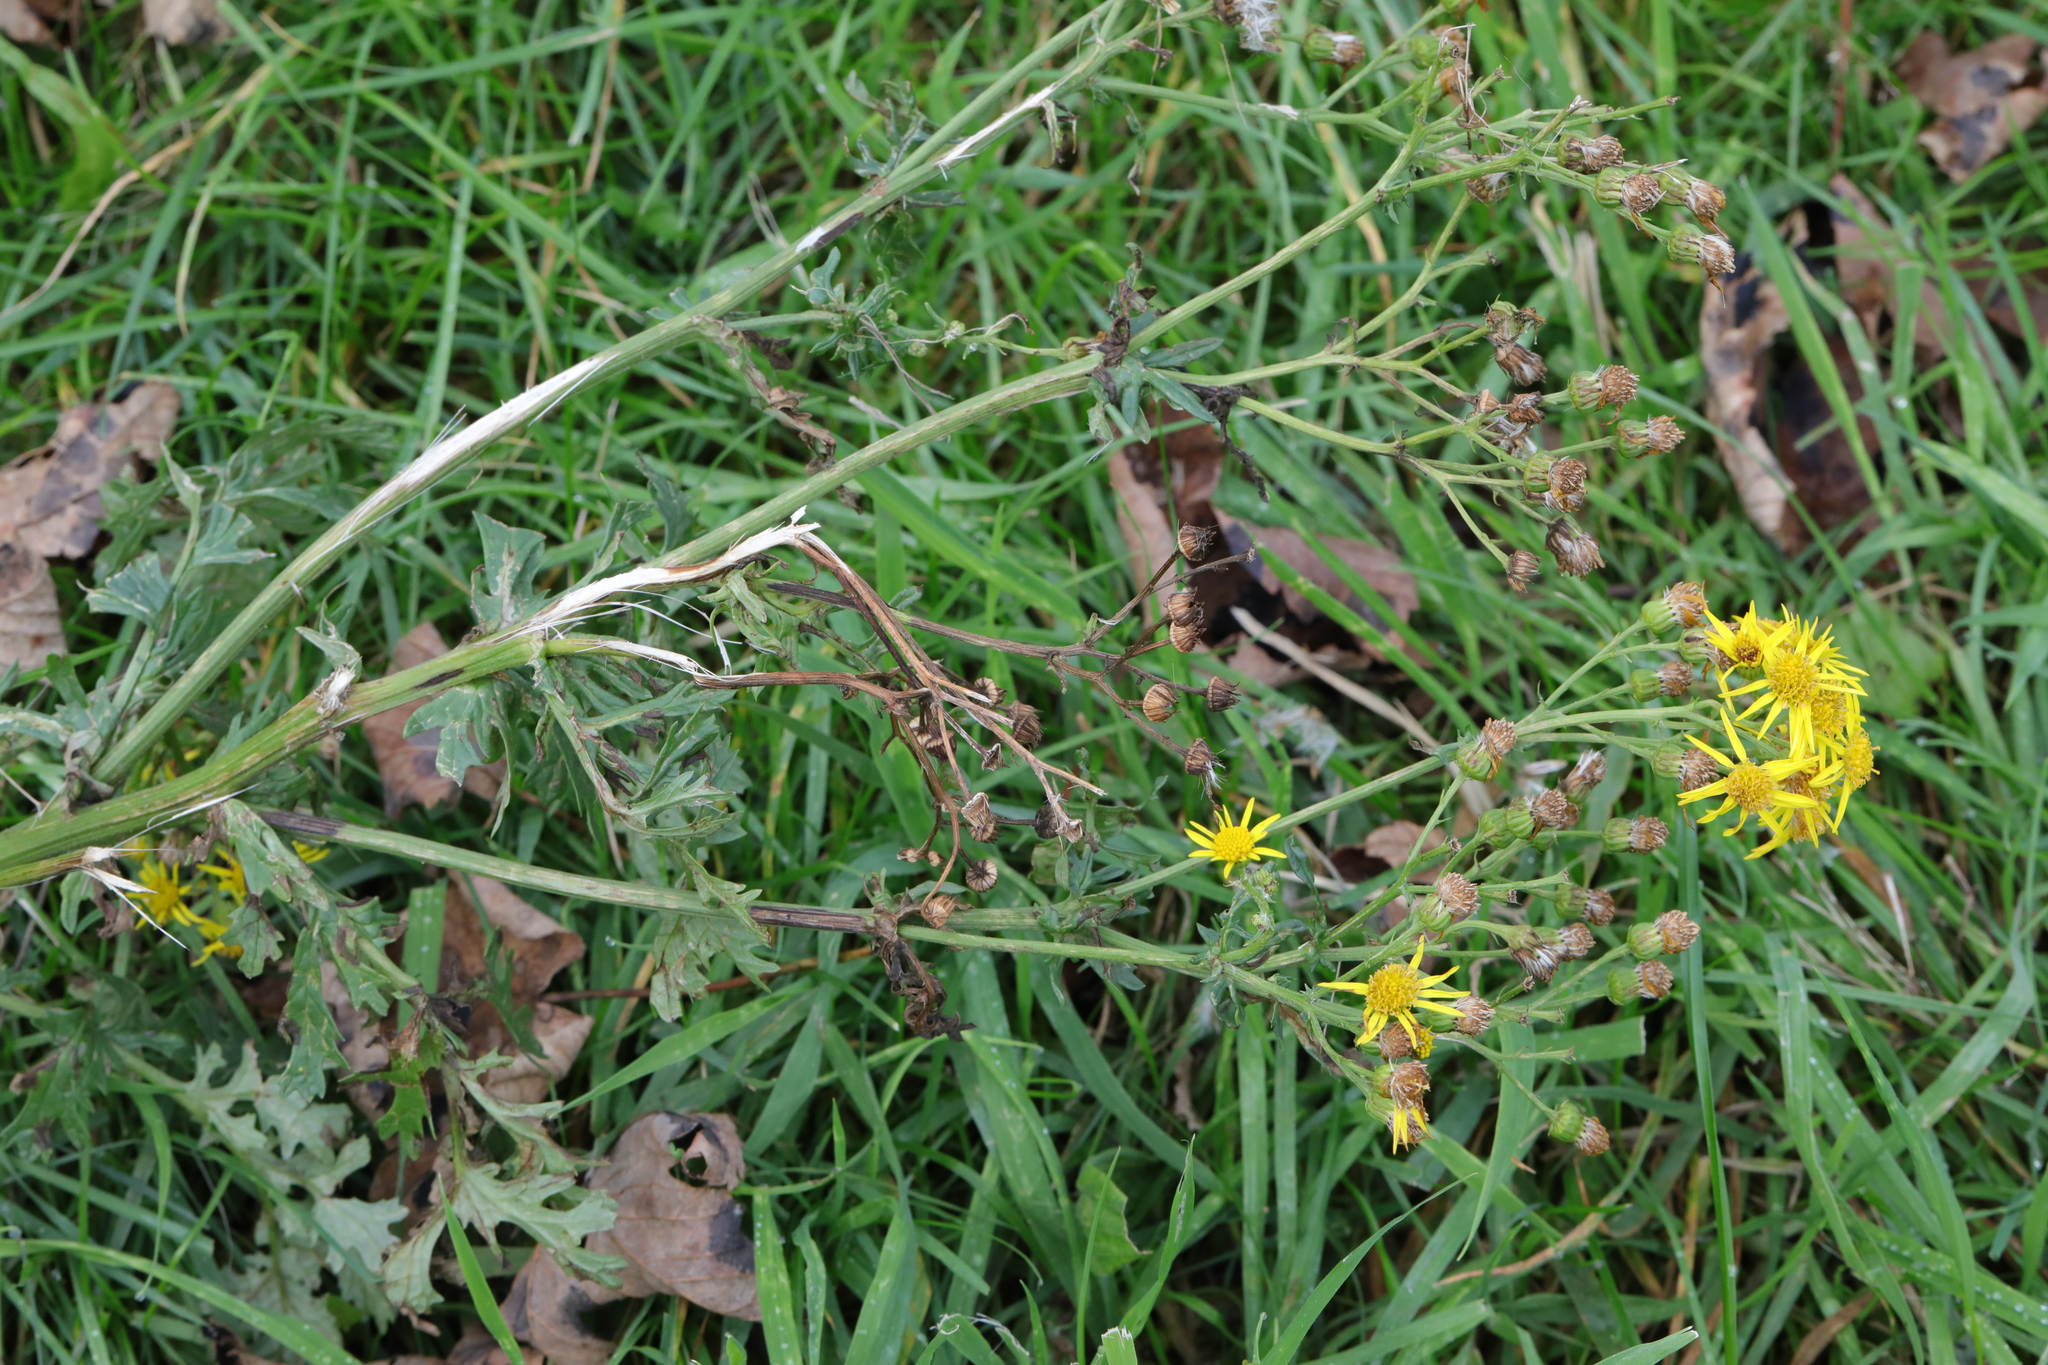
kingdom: Plantae
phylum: Tracheophyta
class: Magnoliopsida
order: Asterales
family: Asteraceae
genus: Jacobaea
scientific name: Jacobaea vulgaris
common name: Stinking willie
